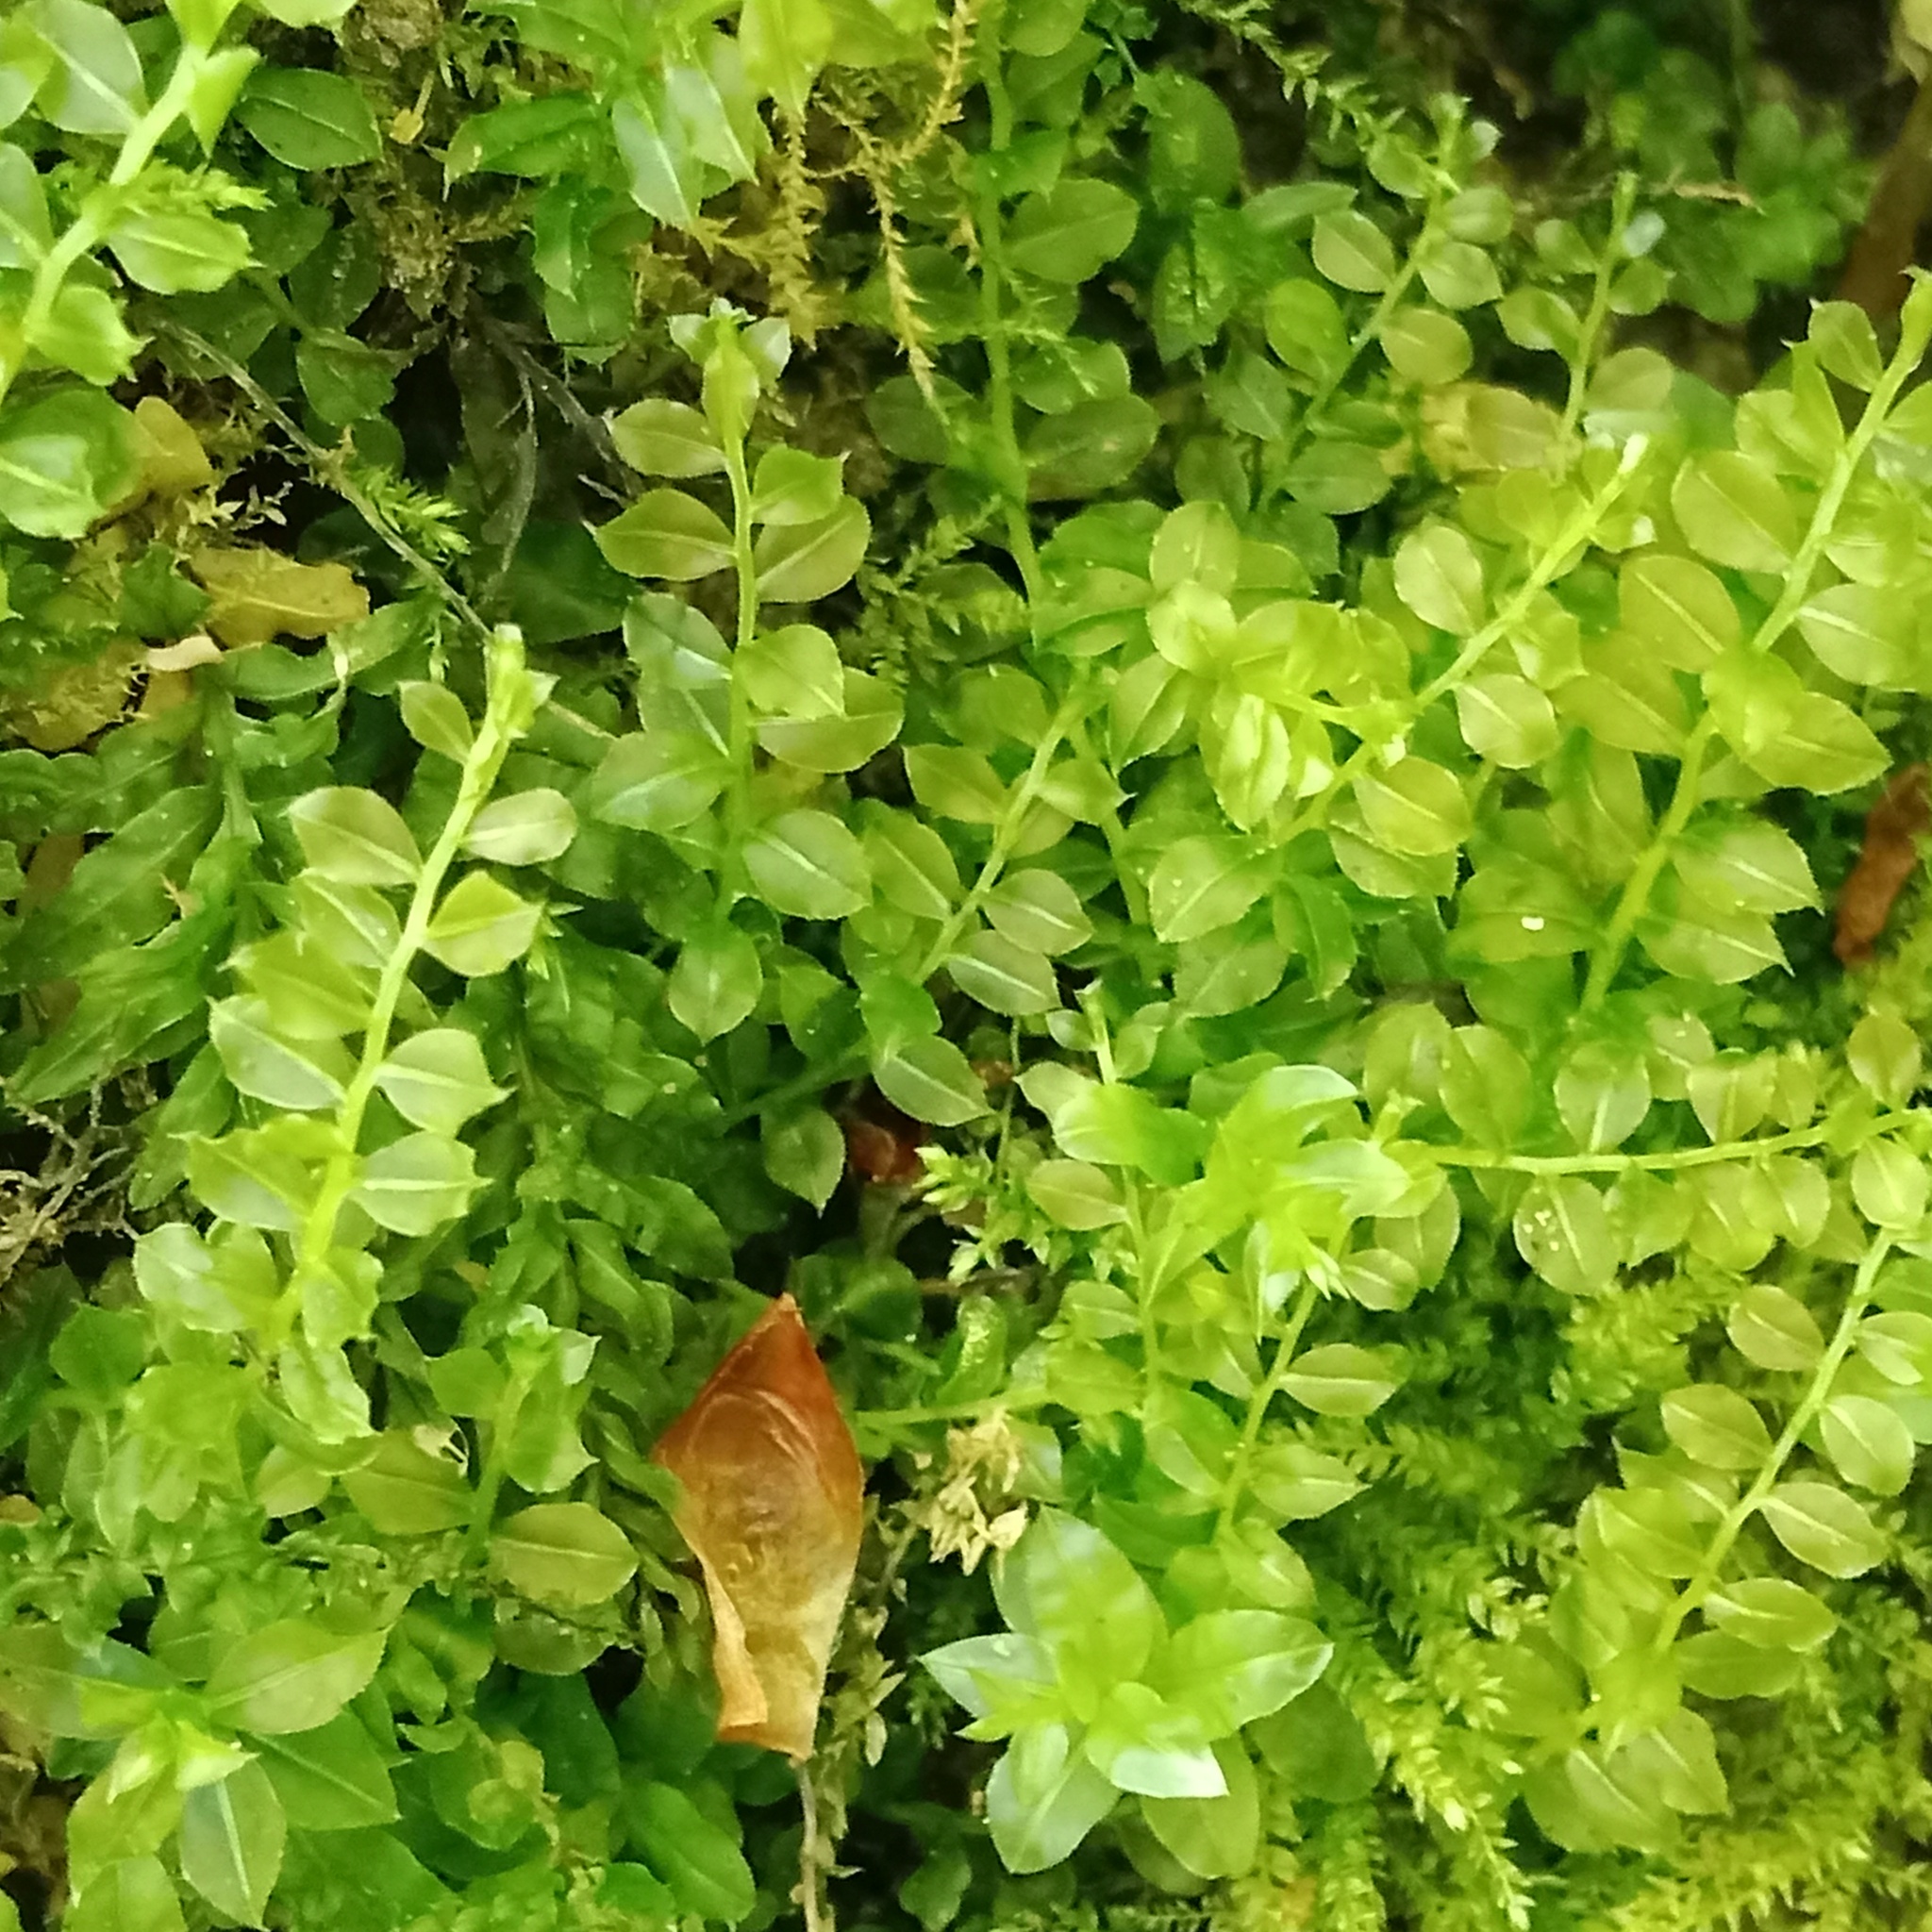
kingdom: Plantae
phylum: Bryophyta
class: Bryopsida
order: Bryales
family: Mniaceae
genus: Plagiomnium
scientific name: Plagiomnium cuspidatum
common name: Woodsy leafy moss
